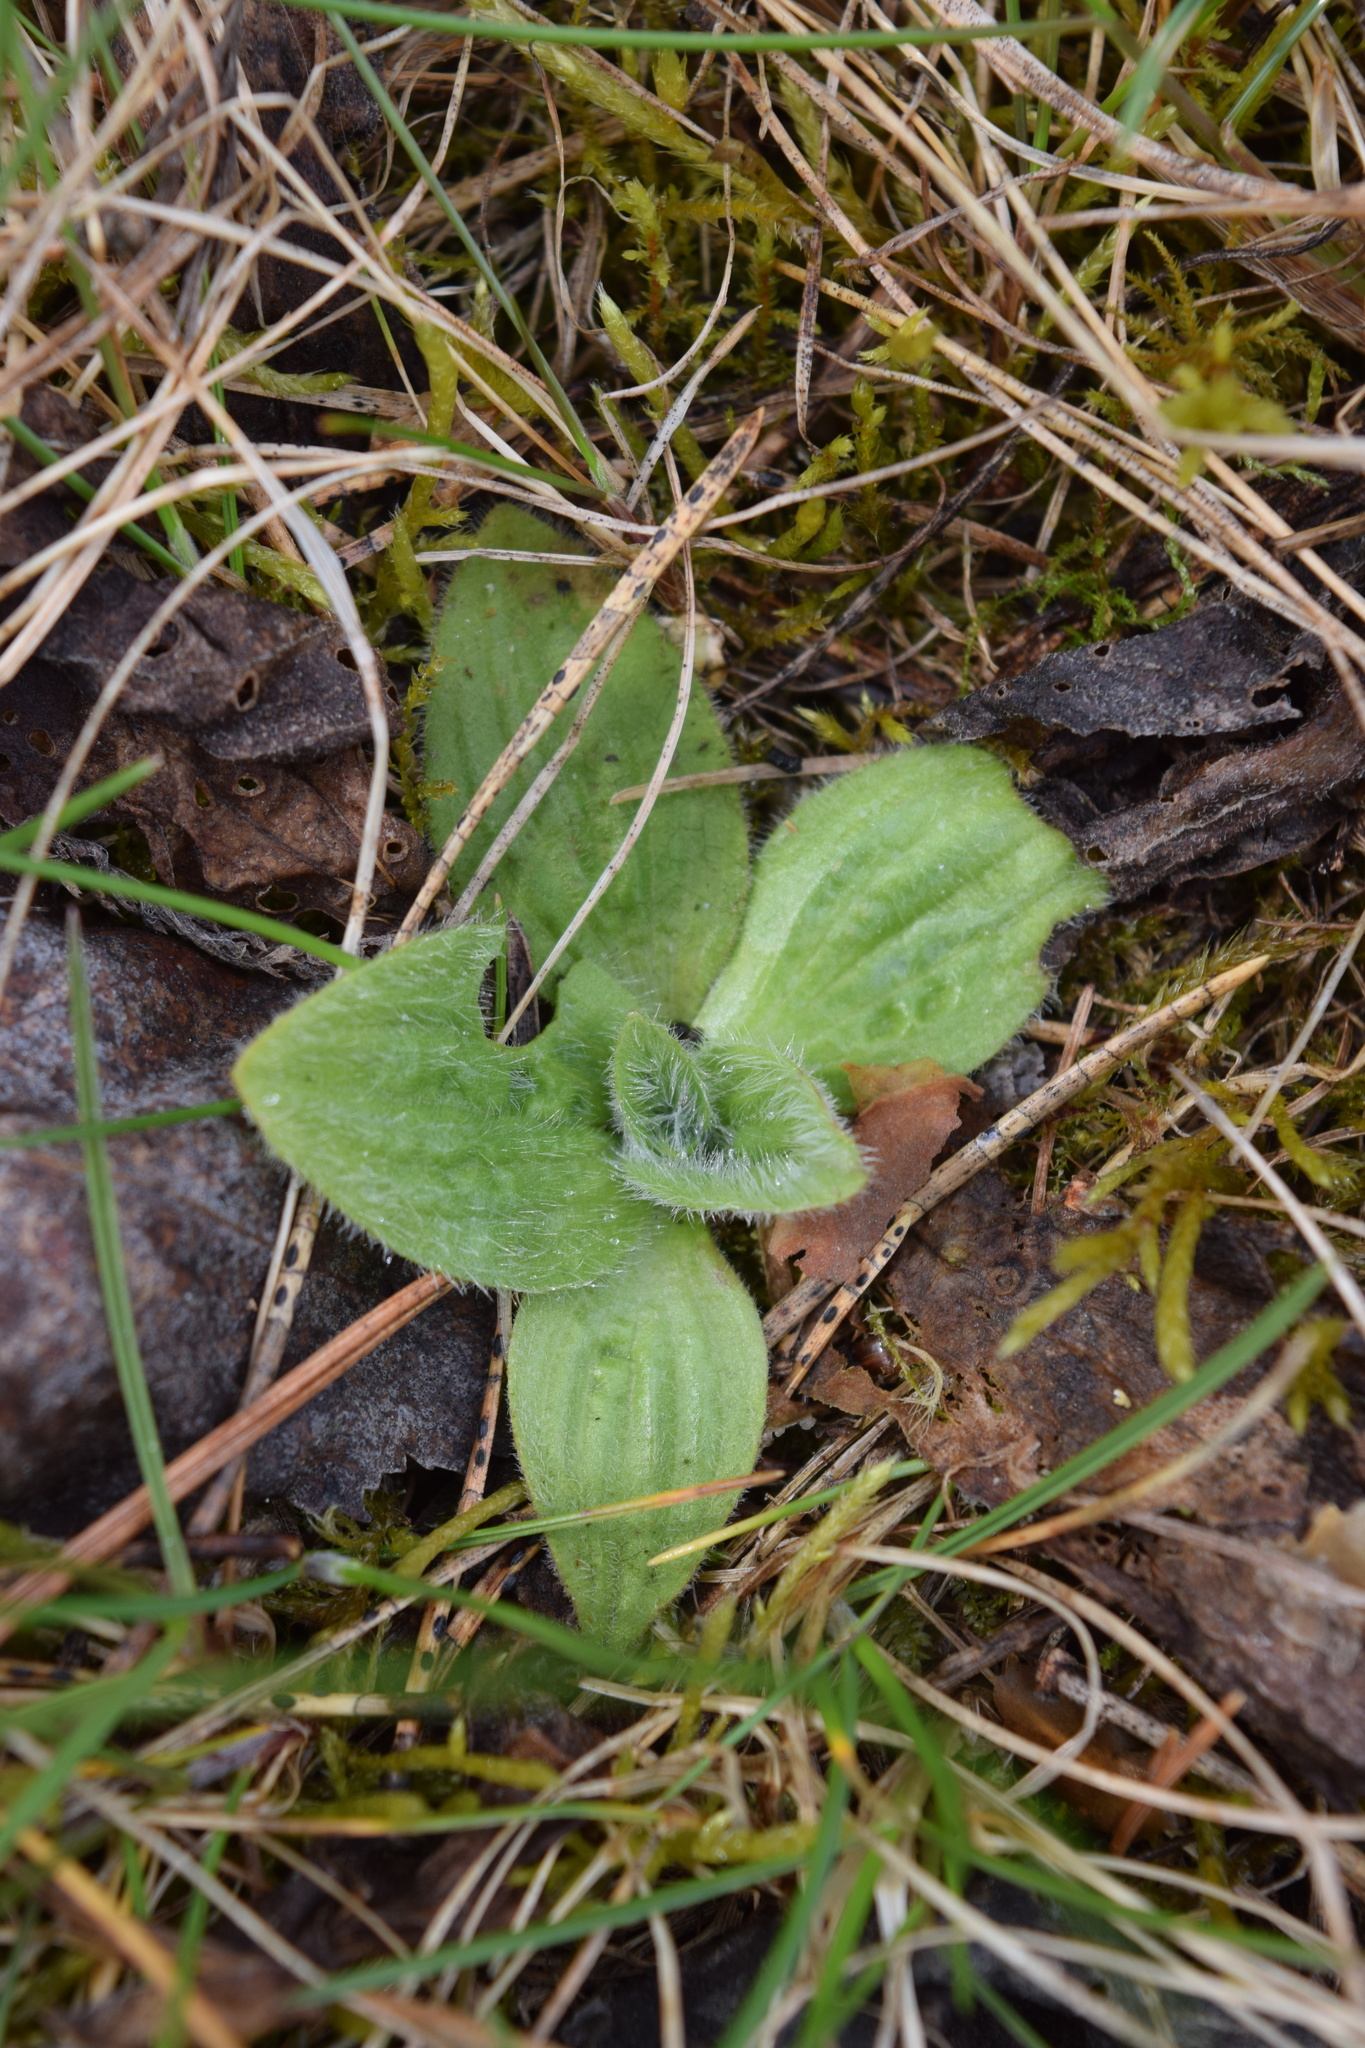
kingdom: Plantae
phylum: Tracheophyta
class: Magnoliopsida
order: Lamiales
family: Plantaginaceae
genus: Plantago
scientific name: Plantago media
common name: Hoary plantain
